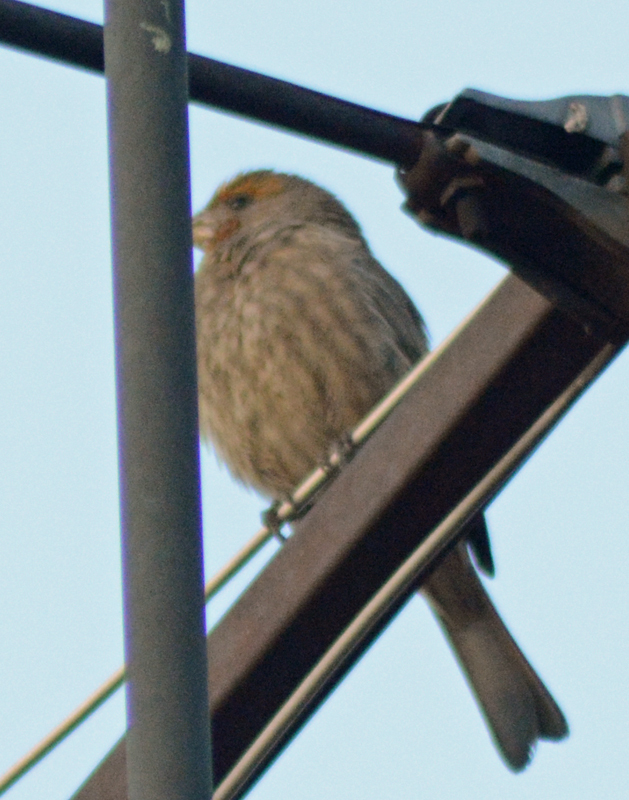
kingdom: Animalia
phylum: Chordata
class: Aves
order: Passeriformes
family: Fringillidae
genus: Haemorhous
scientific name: Haemorhous mexicanus
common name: House finch
